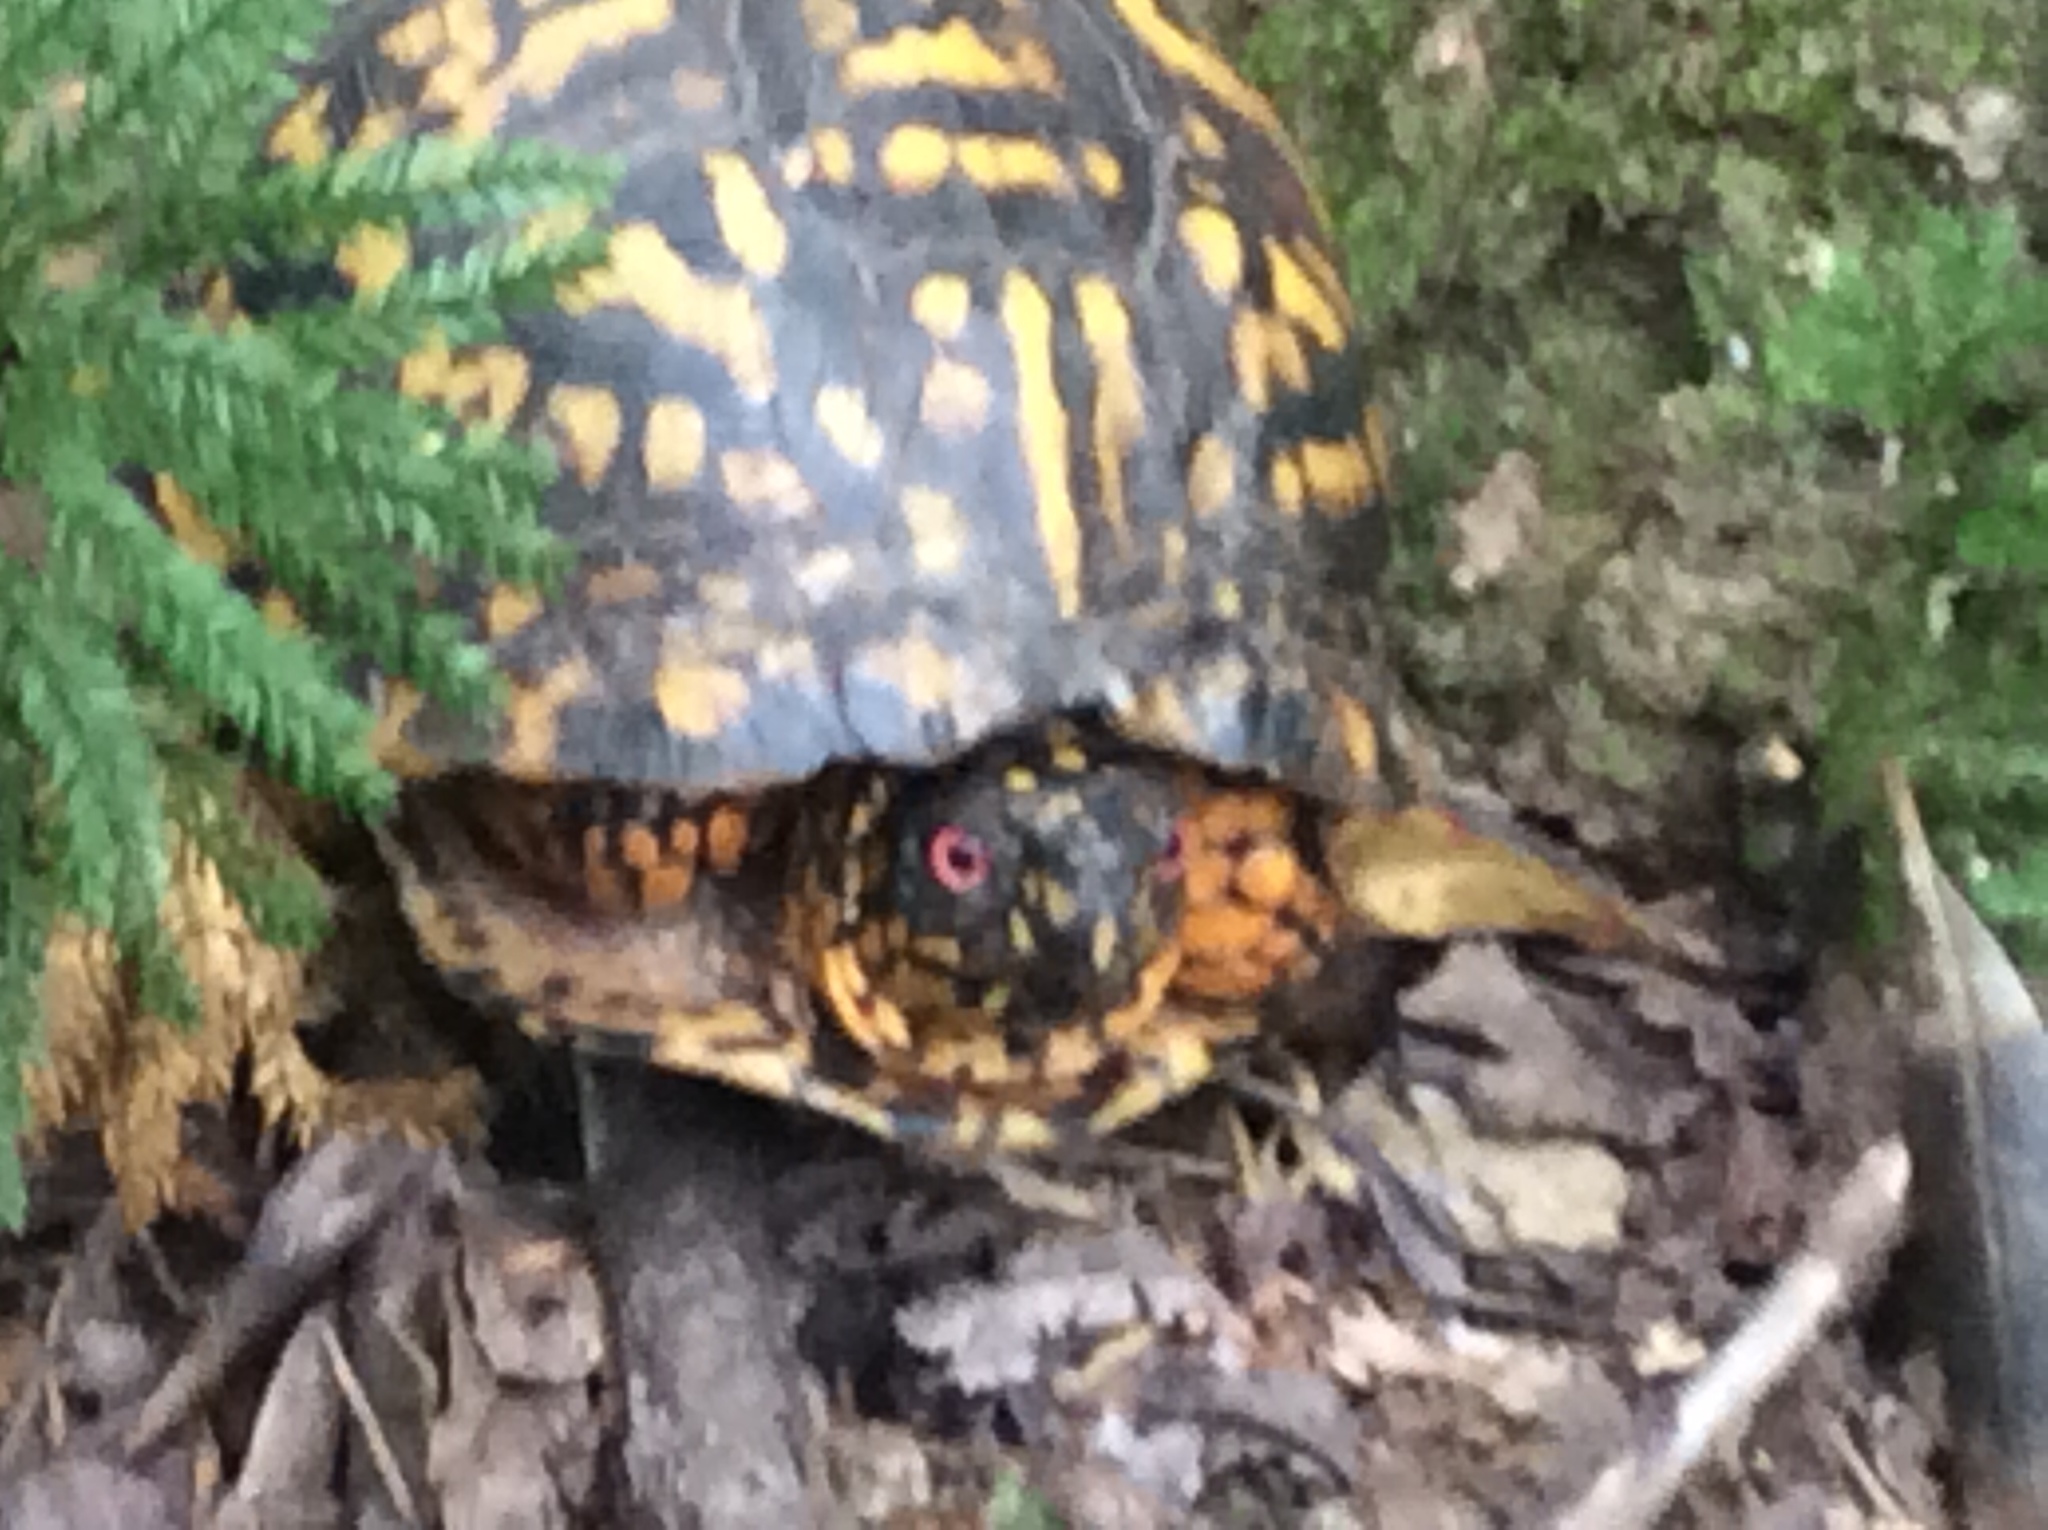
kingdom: Animalia
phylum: Chordata
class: Testudines
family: Emydidae
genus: Terrapene
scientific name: Terrapene carolina
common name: Common box turtle
